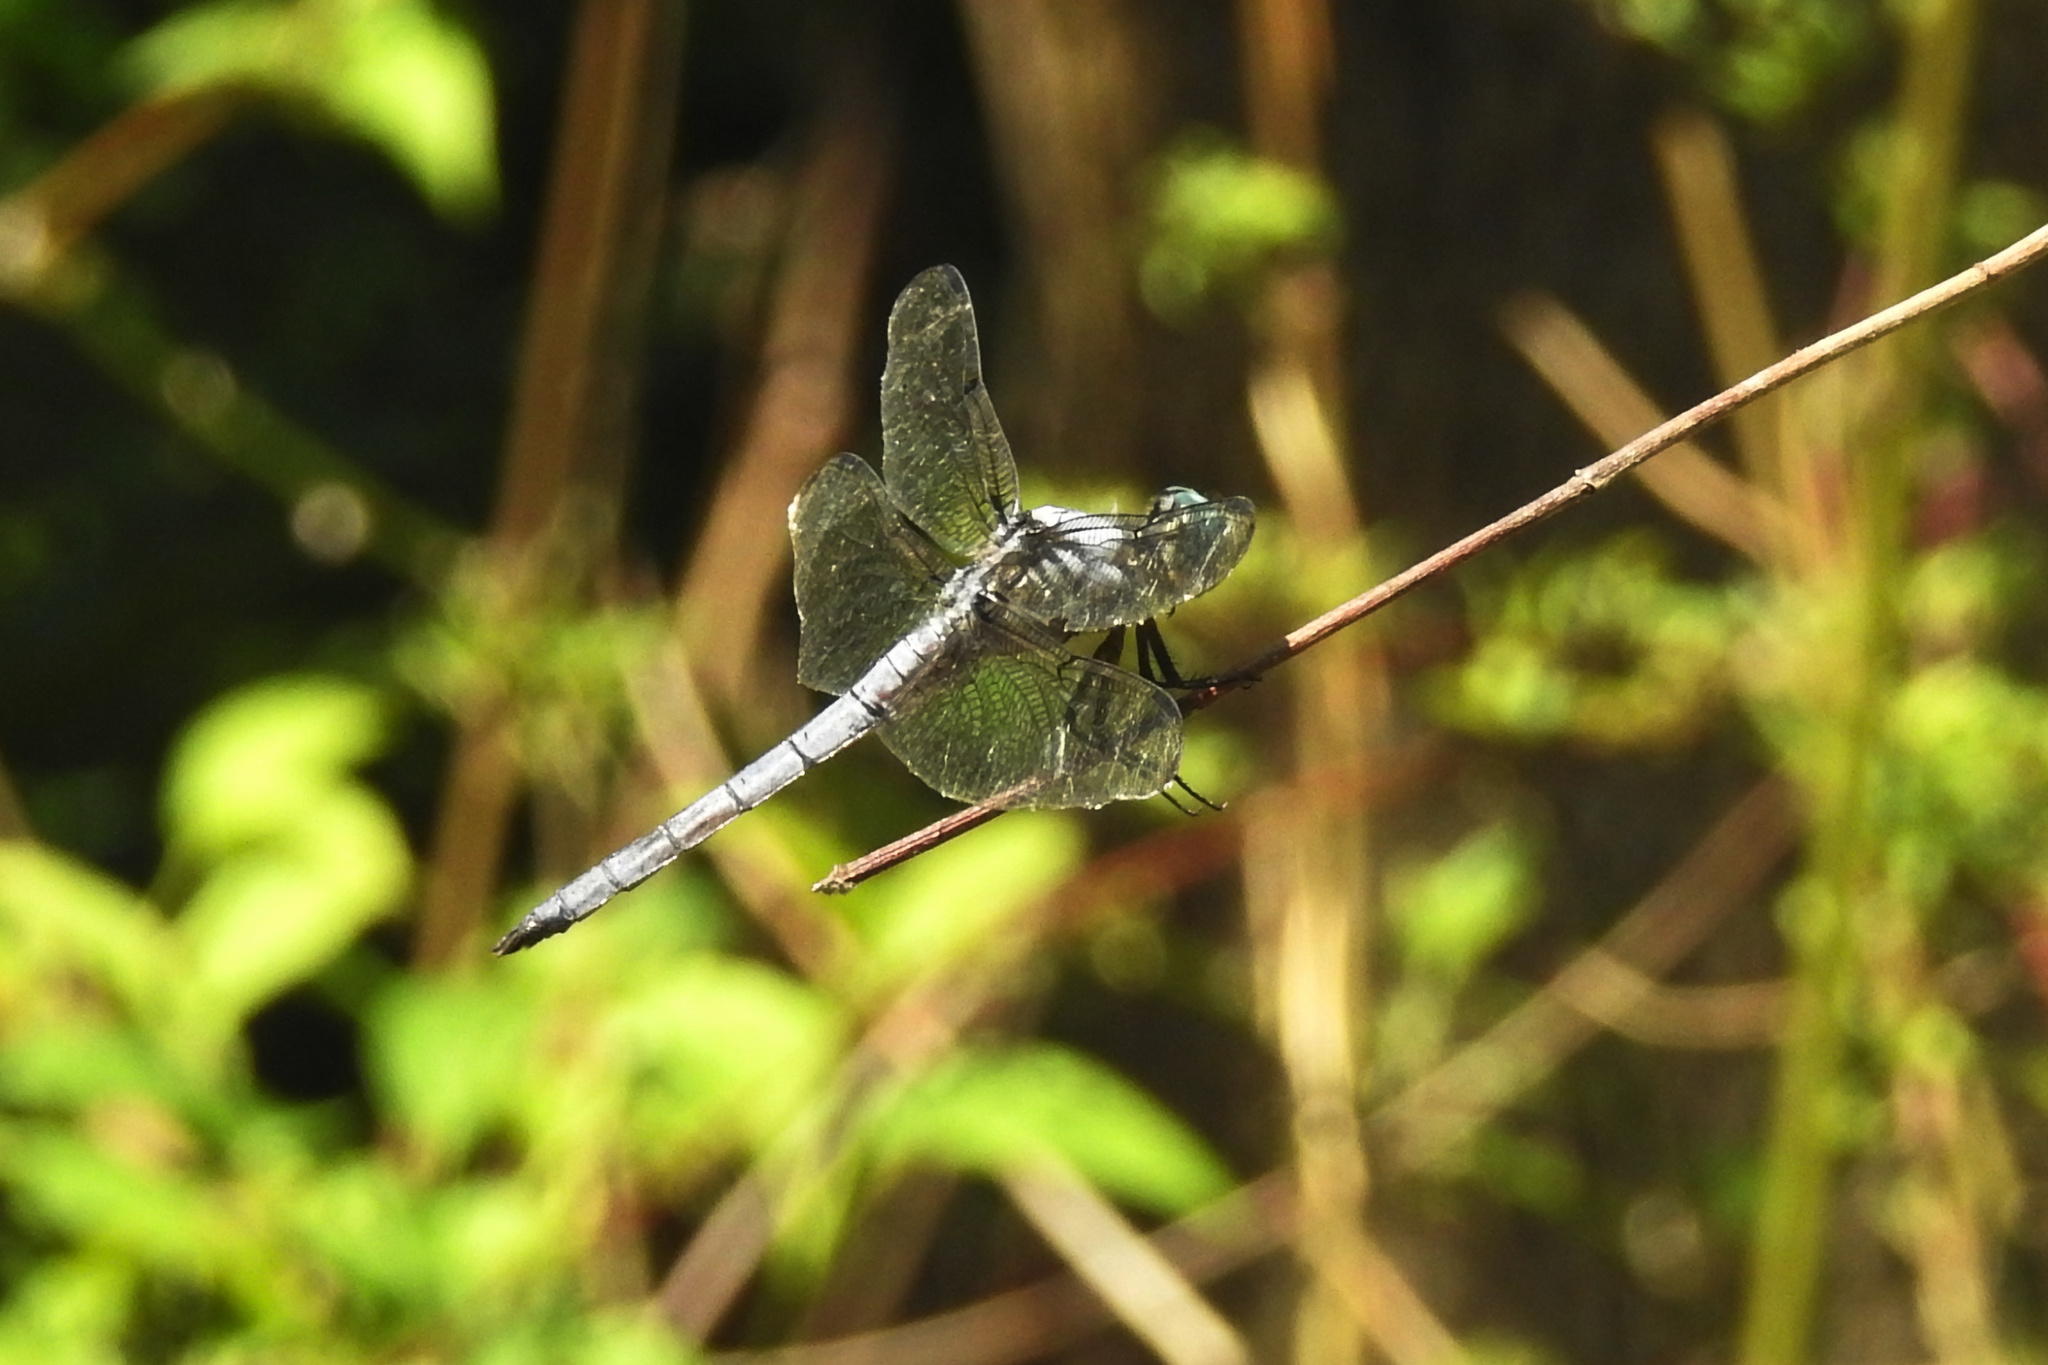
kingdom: Animalia
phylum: Arthropoda
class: Insecta
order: Odonata
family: Libellulidae
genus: Libellula
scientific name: Libellula vibrans
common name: Great blue skimmer
